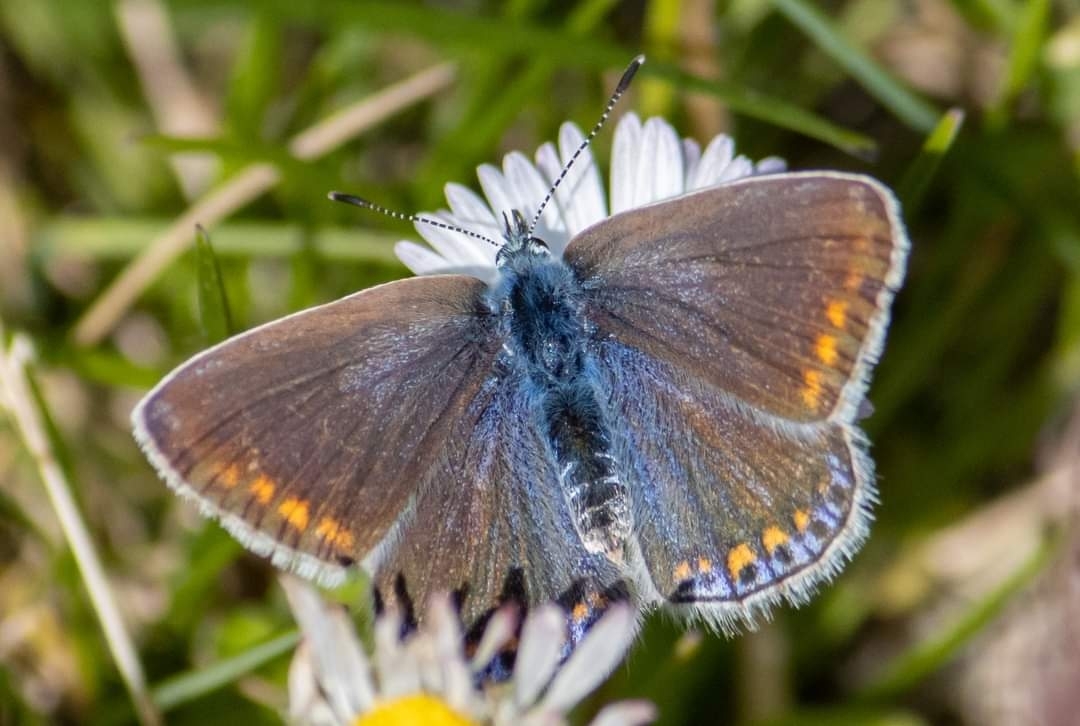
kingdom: Animalia
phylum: Arthropoda
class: Insecta
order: Lepidoptera
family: Lycaenidae
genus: Polyommatus
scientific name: Polyommatus icarus
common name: Common blue
